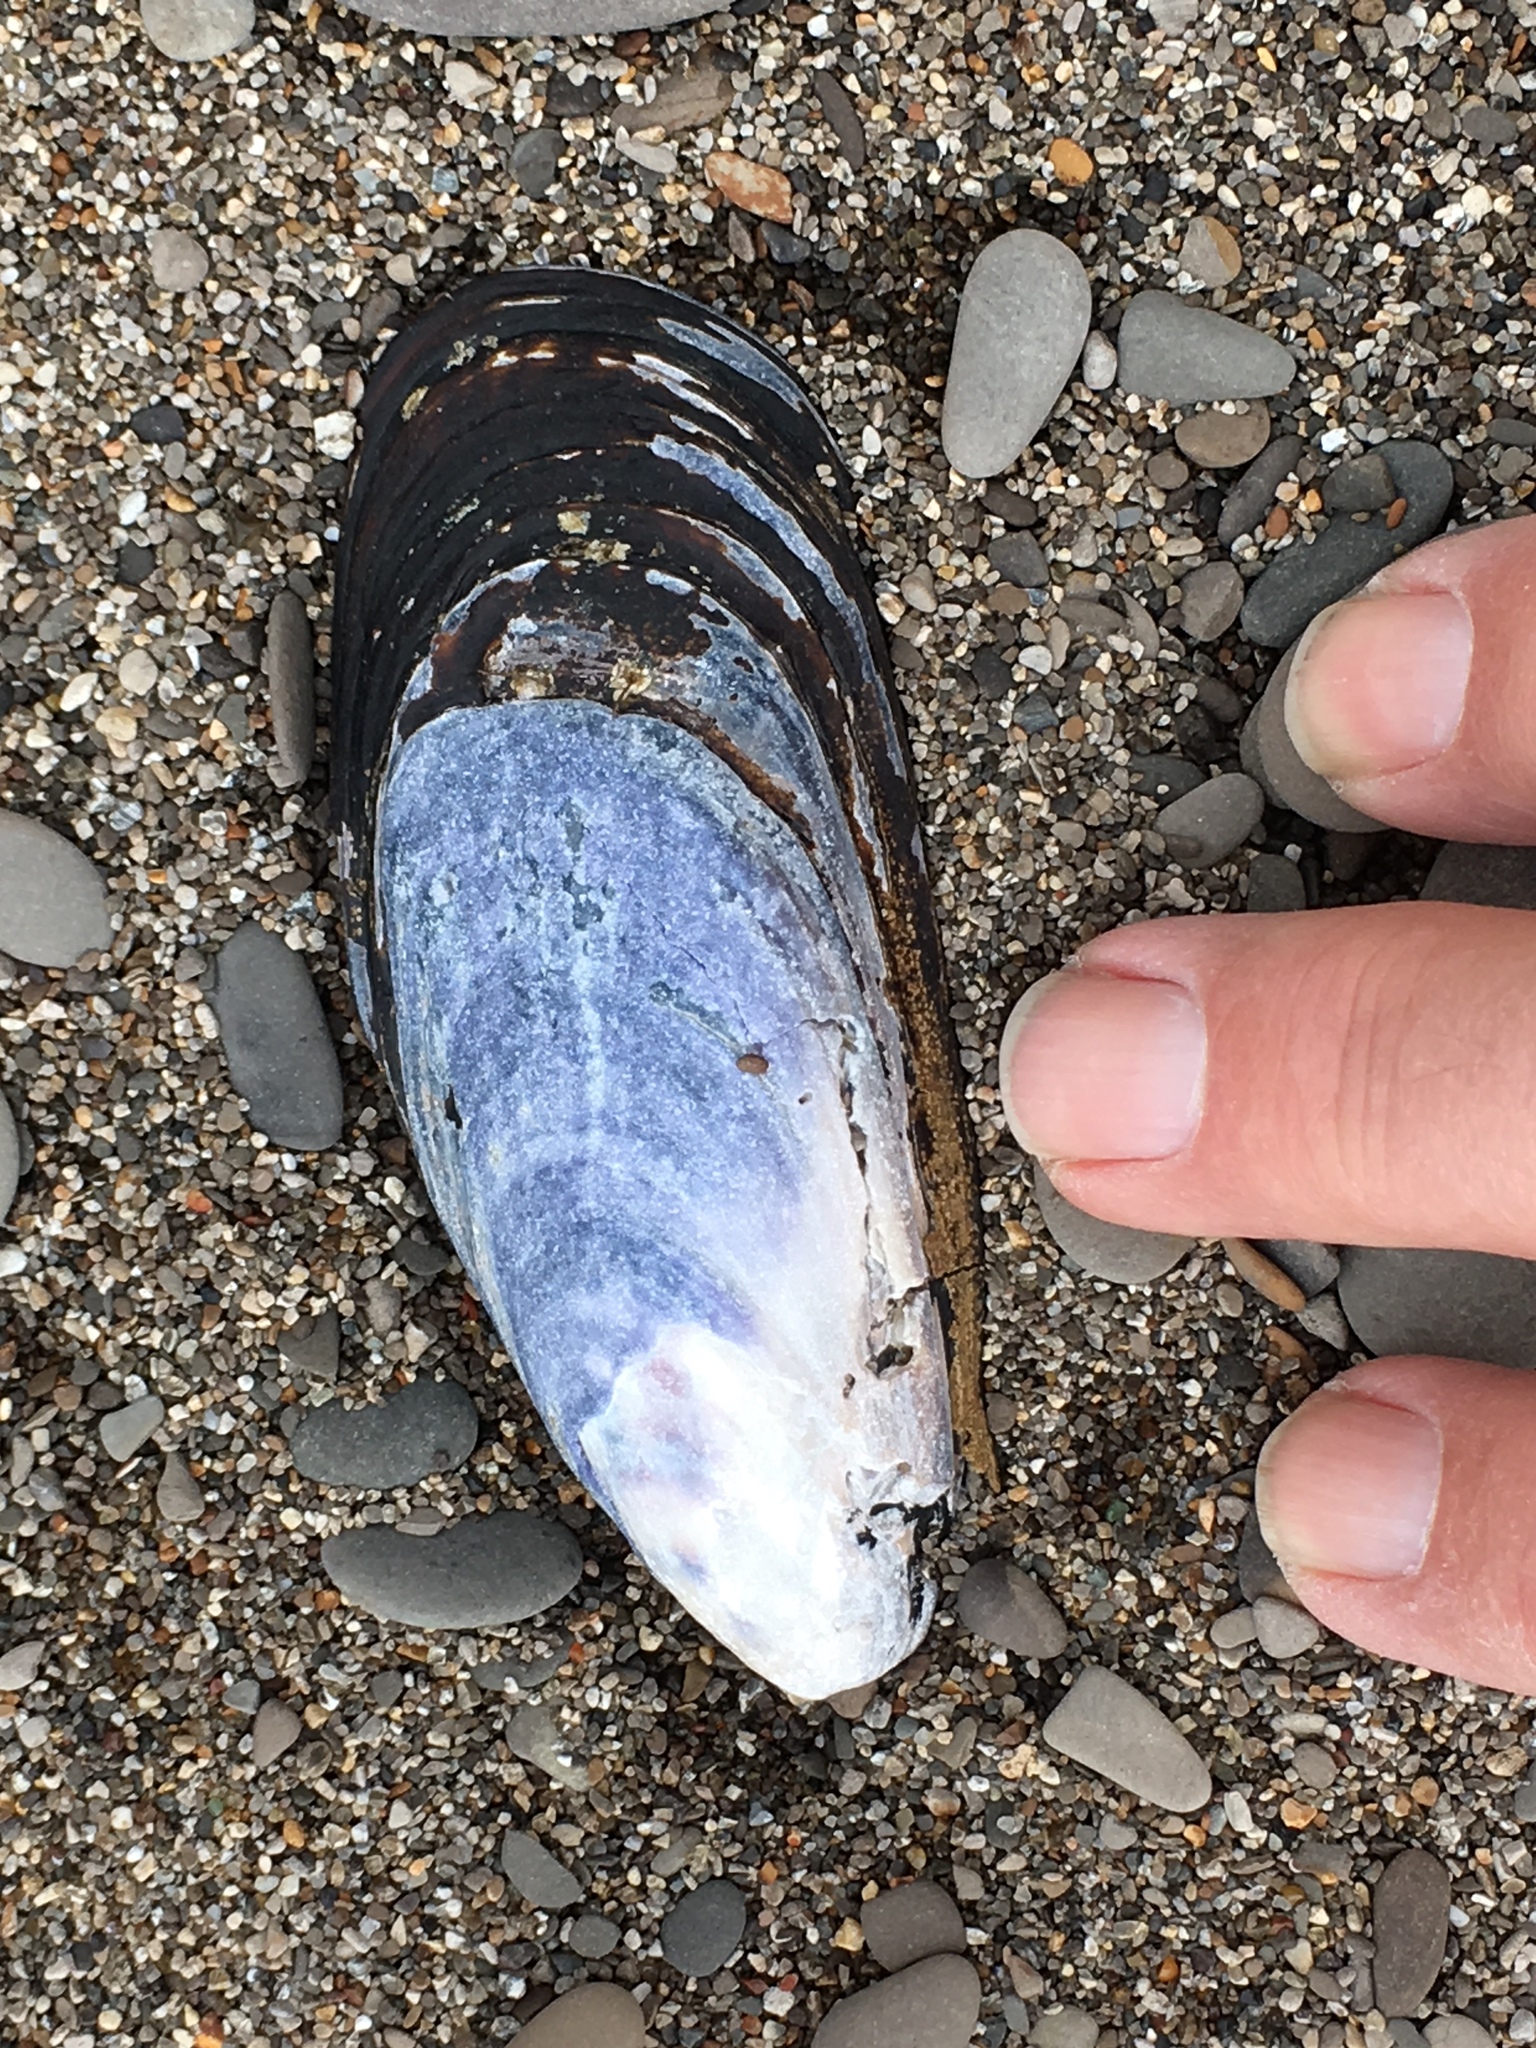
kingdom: Animalia
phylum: Mollusca
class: Bivalvia
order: Mytilida
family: Mytilidae
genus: Mytilus
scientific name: Mytilus californianus
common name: California mussel
